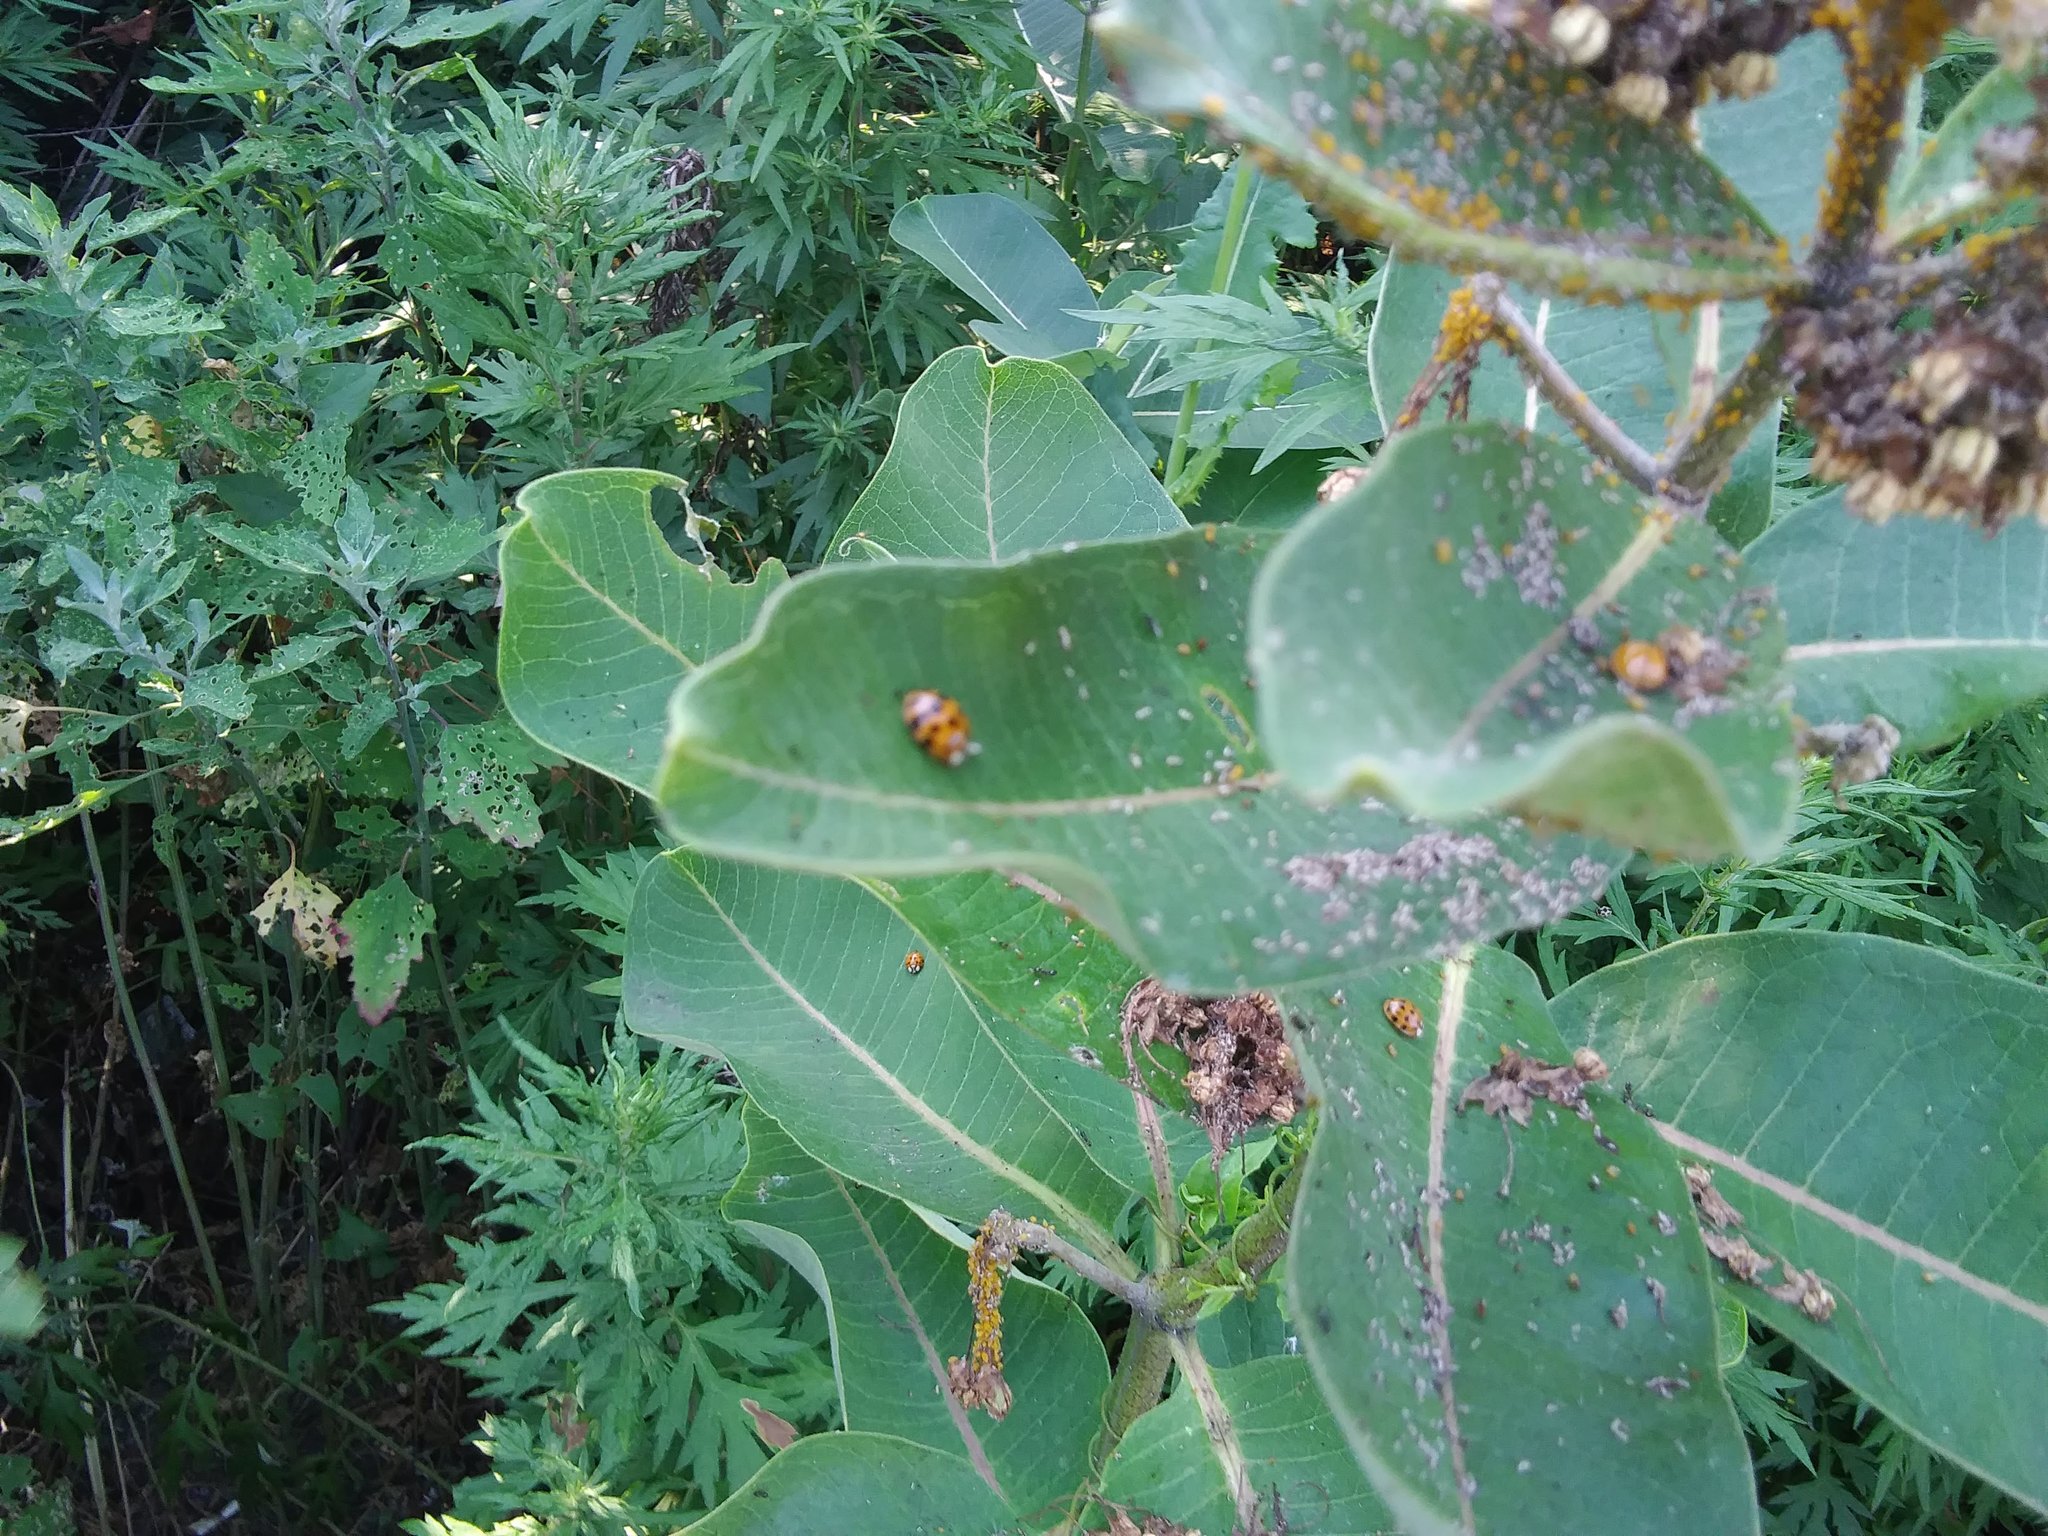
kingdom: Animalia
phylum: Arthropoda
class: Insecta
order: Coleoptera
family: Coccinellidae
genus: Harmonia
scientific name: Harmonia axyridis
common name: Harlequin ladybird
